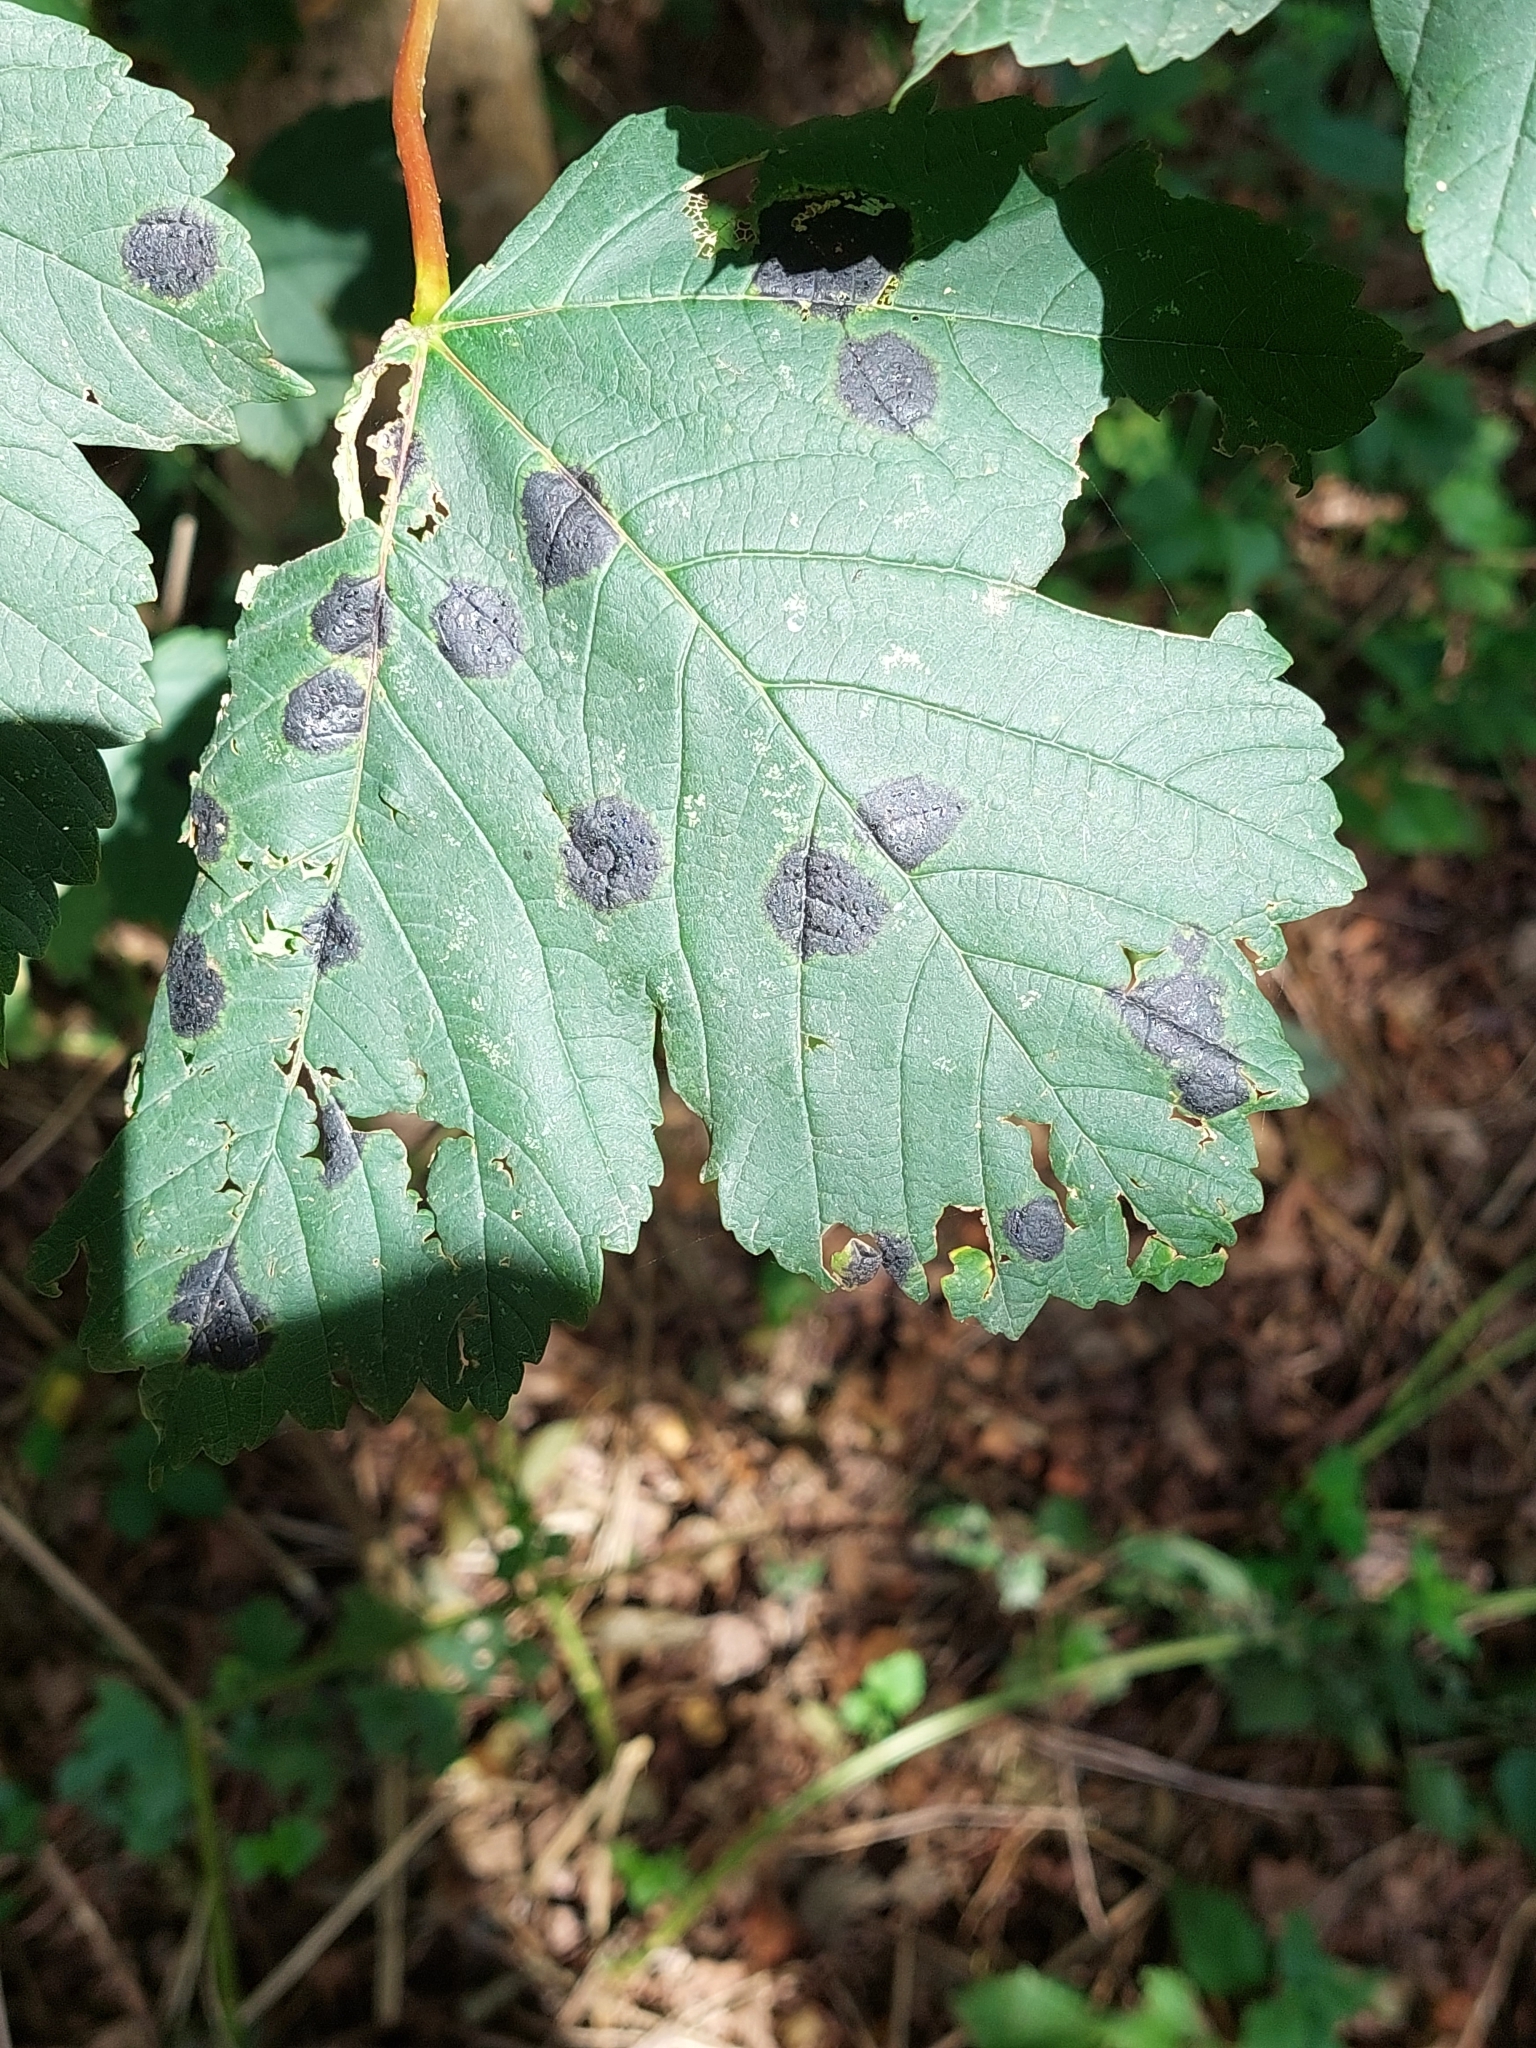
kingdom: Fungi
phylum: Ascomycota
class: Leotiomycetes
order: Rhytismatales
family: Rhytismataceae
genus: Rhytisma
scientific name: Rhytisma acerinum
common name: European tar spot
